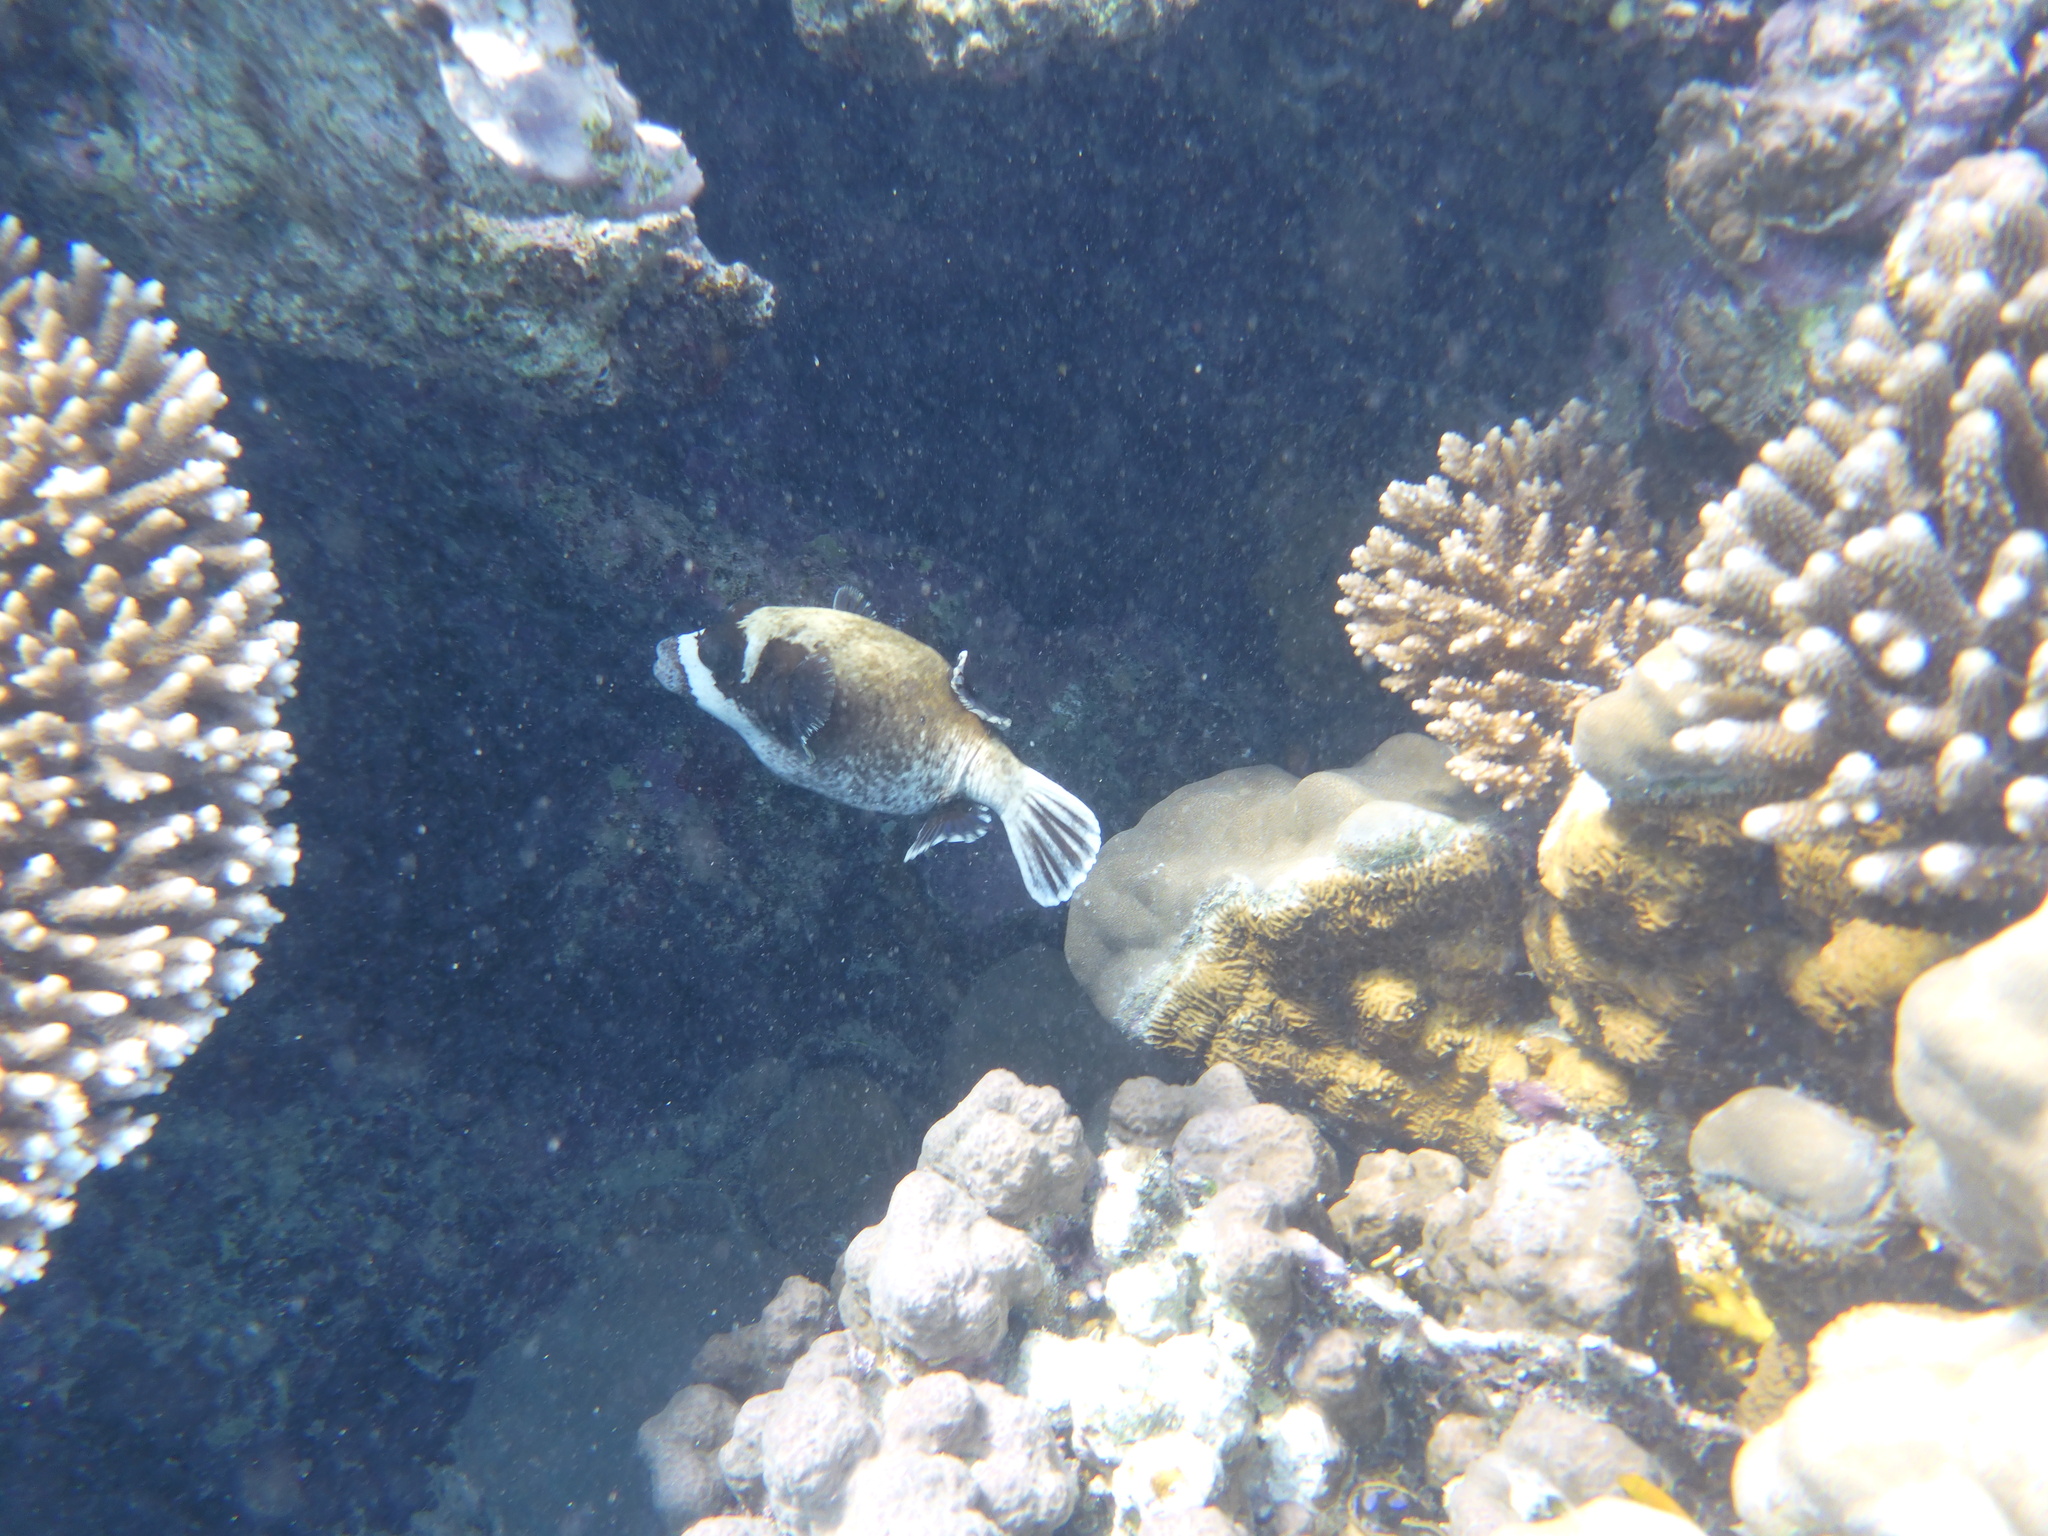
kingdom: Animalia
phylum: Chordata
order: Tetraodontiformes
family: Tetraodontidae
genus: Arothron
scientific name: Arothron diadematus
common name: Masked puffer
